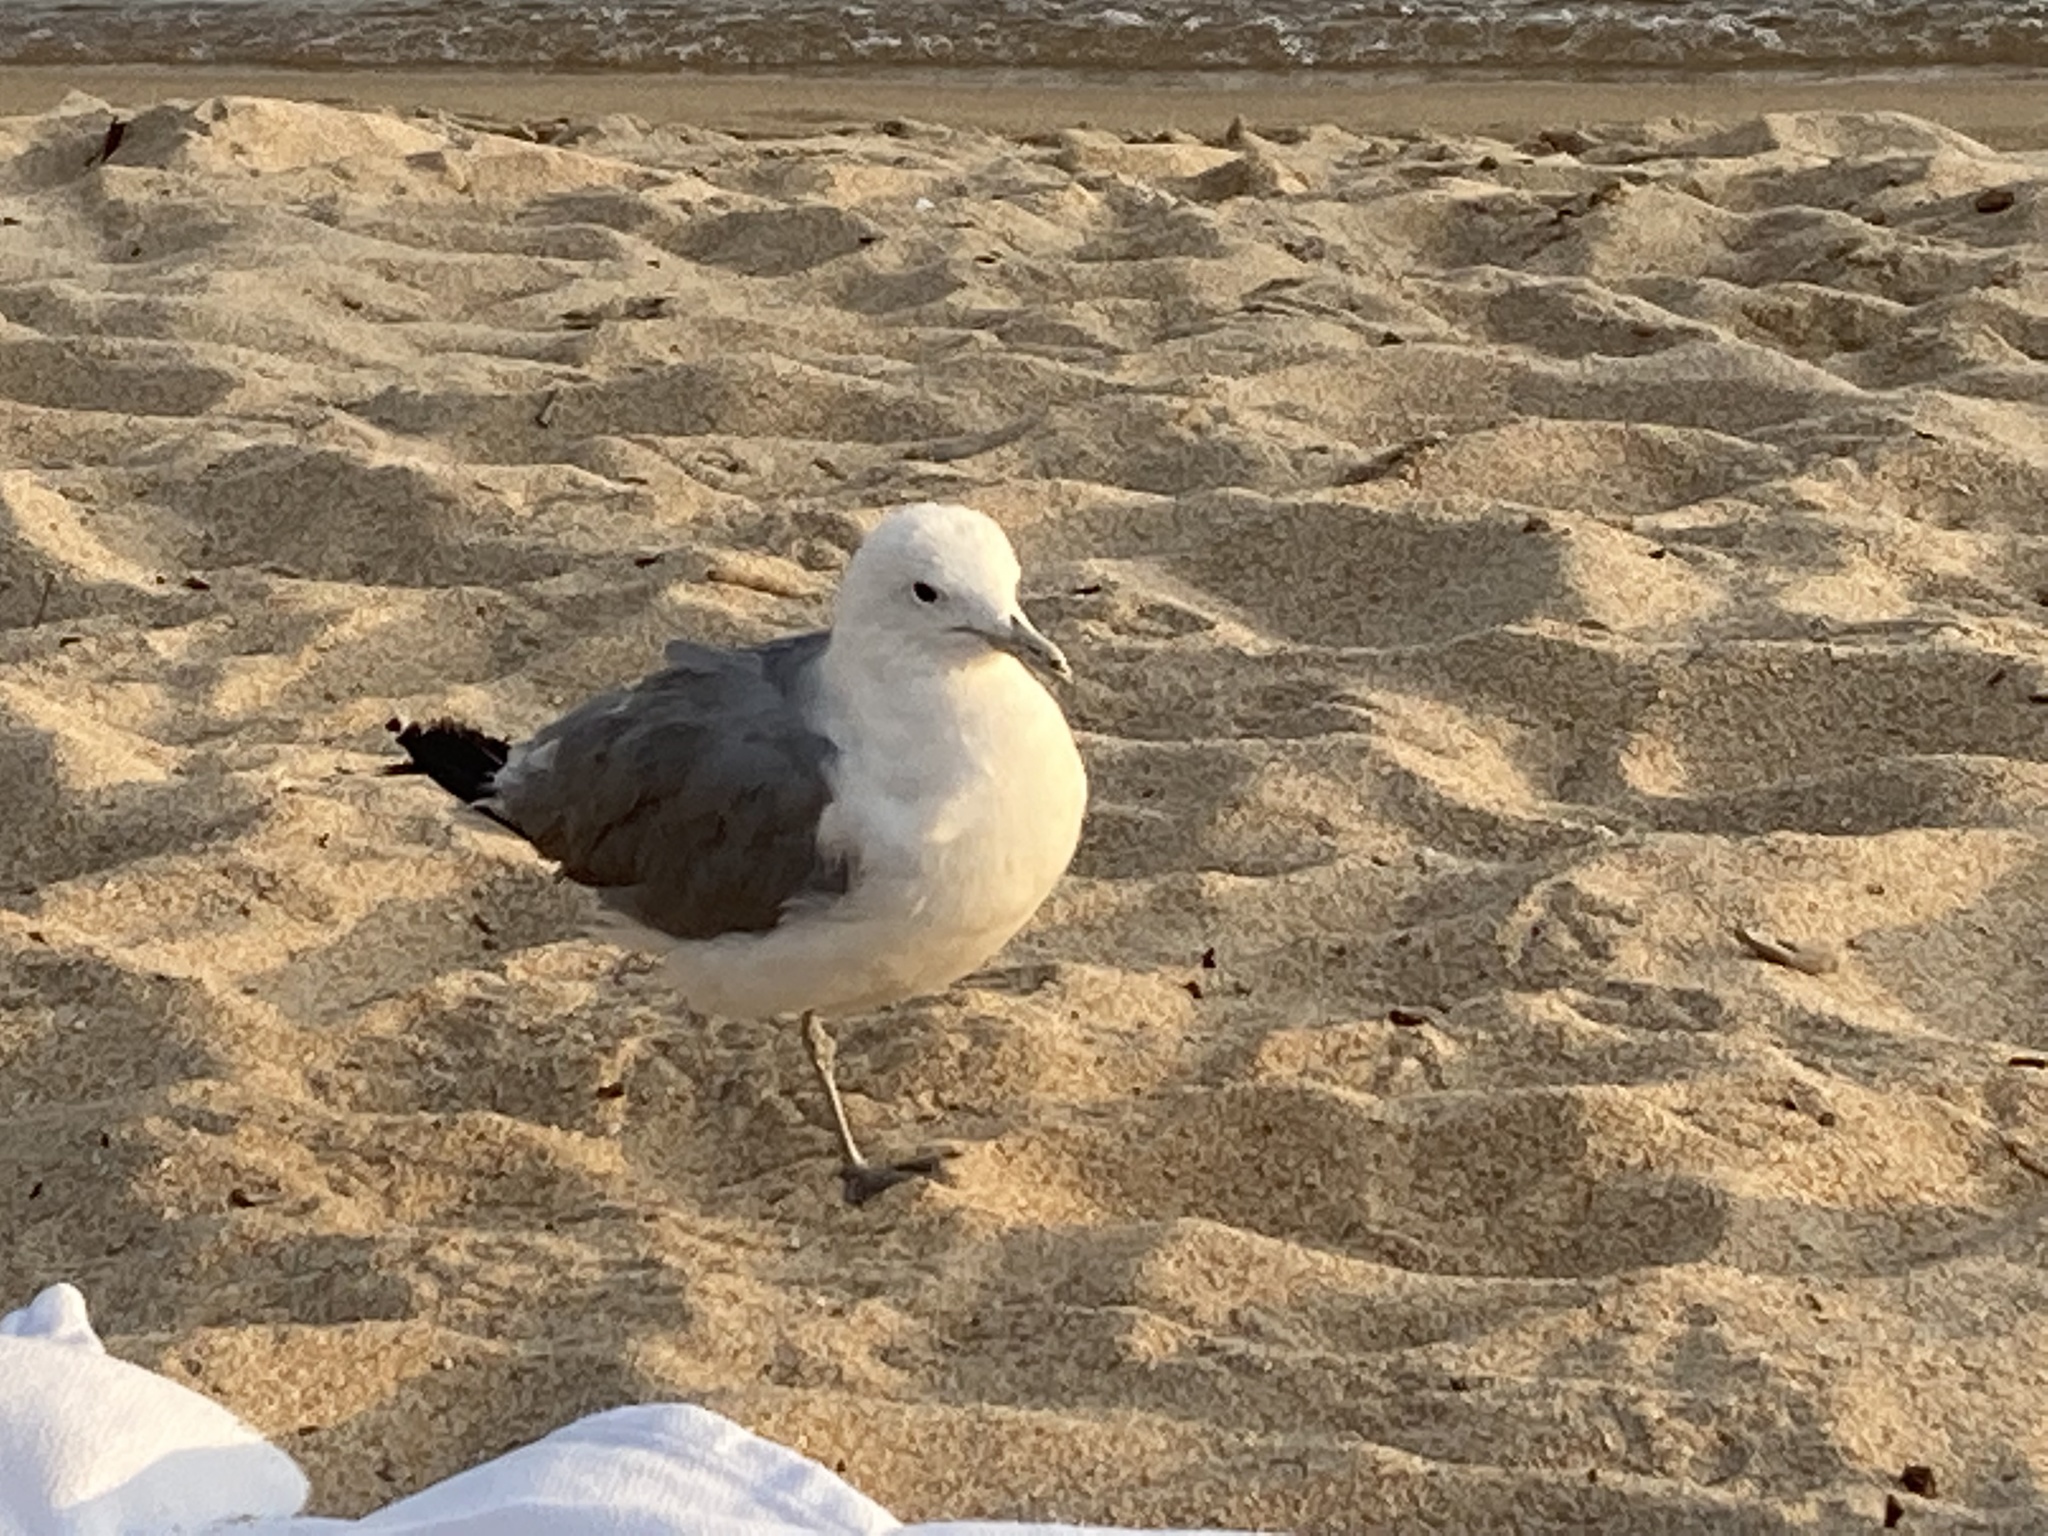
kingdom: Animalia
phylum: Chordata
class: Aves
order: Charadriiformes
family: Laridae
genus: Larus
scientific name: Larus californicus
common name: California gull
